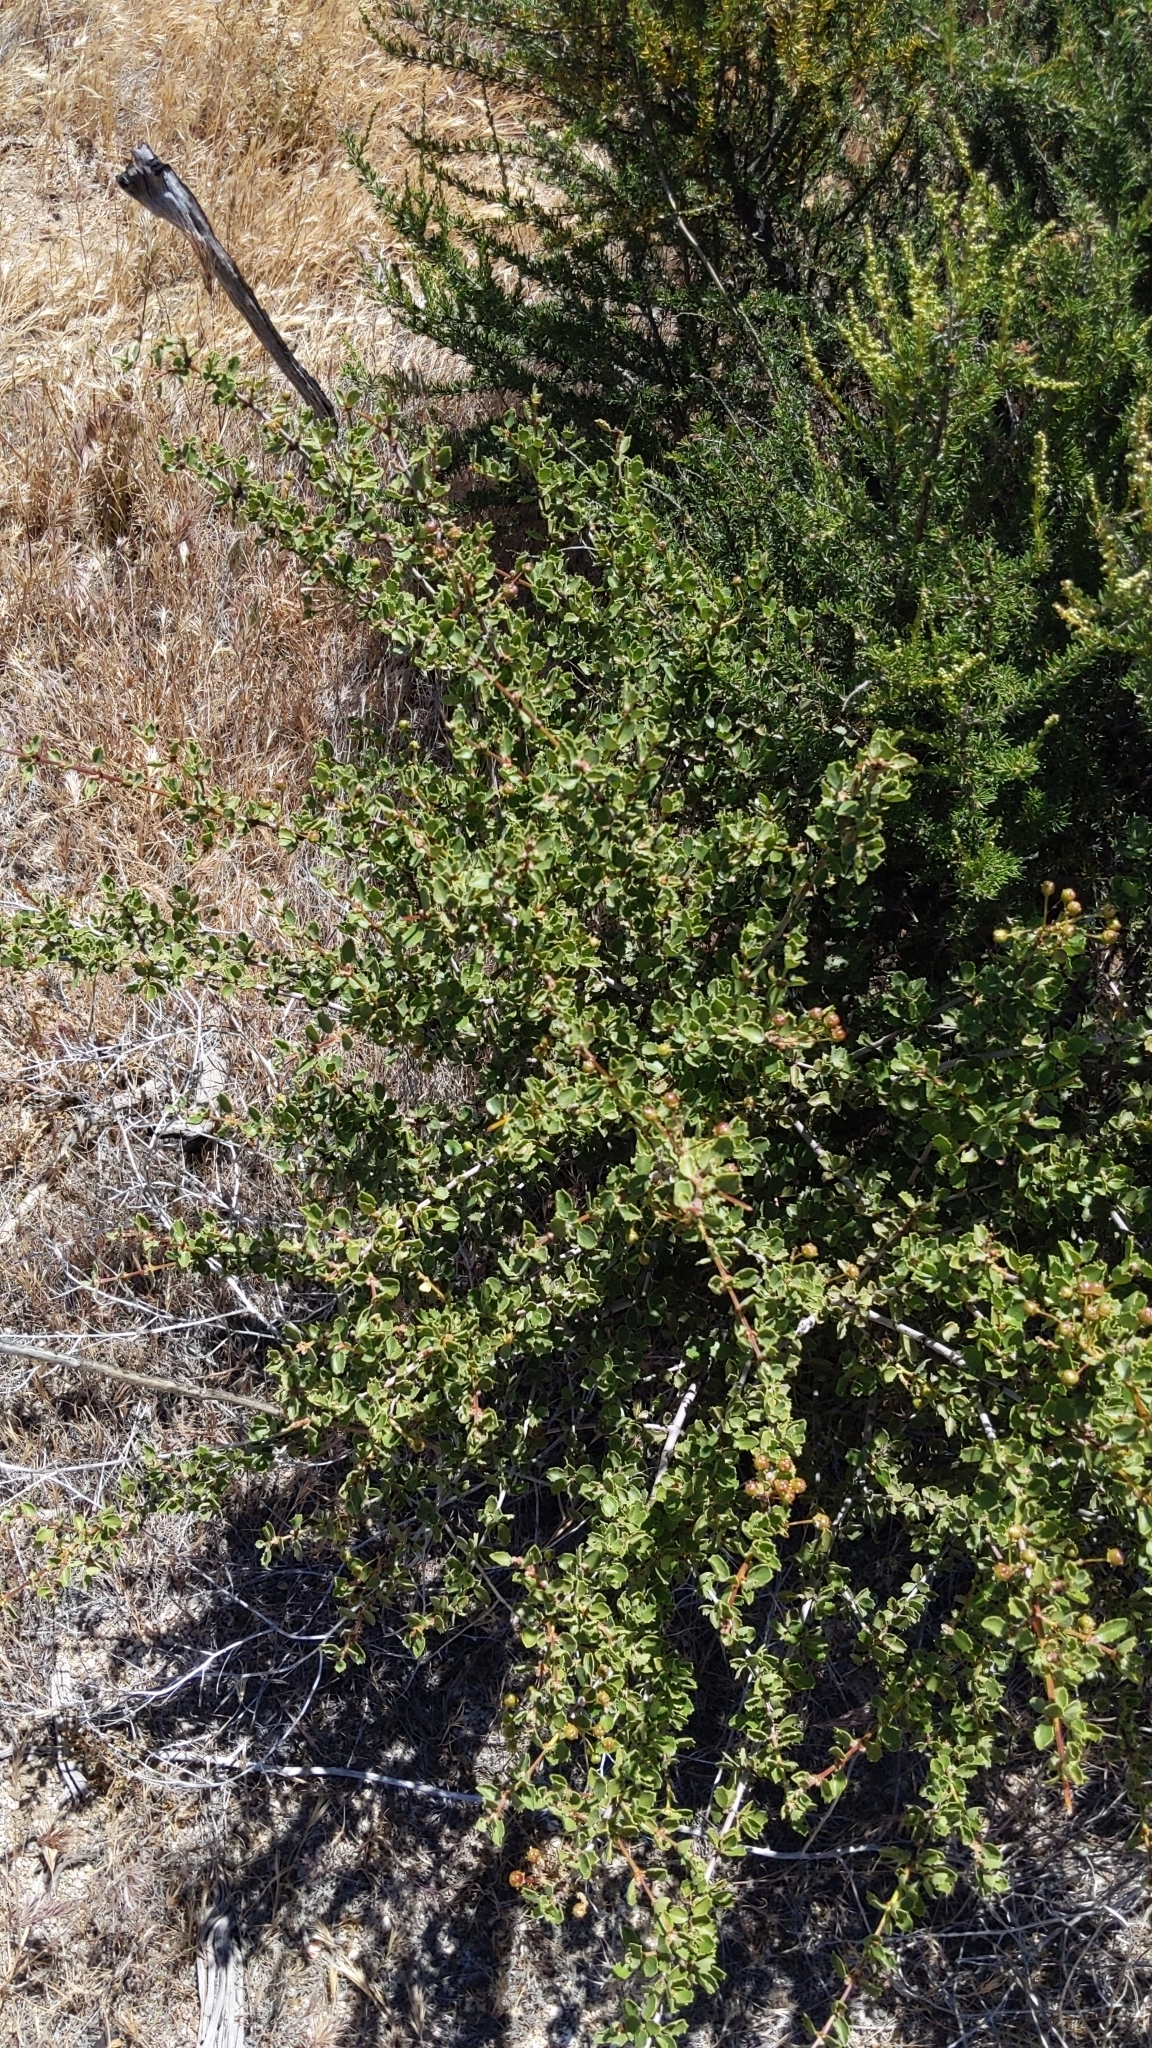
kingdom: Plantae
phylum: Tracheophyta
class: Magnoliopsida
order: Rosales
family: Rhamnaceae
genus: Ceanothus
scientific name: Ceanothus perplexans
